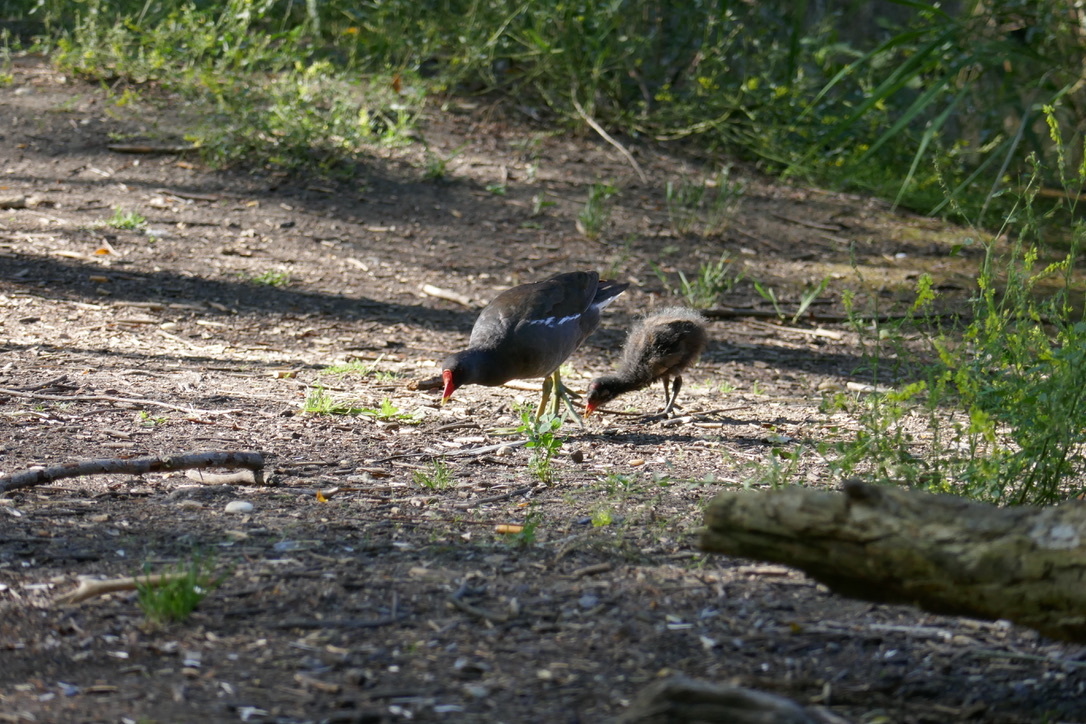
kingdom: Animalia
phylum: Chordata
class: Aves
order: Gruiformes
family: Rallidae
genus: Gallinula
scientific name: Gallinula chloropus
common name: Common moorhen
